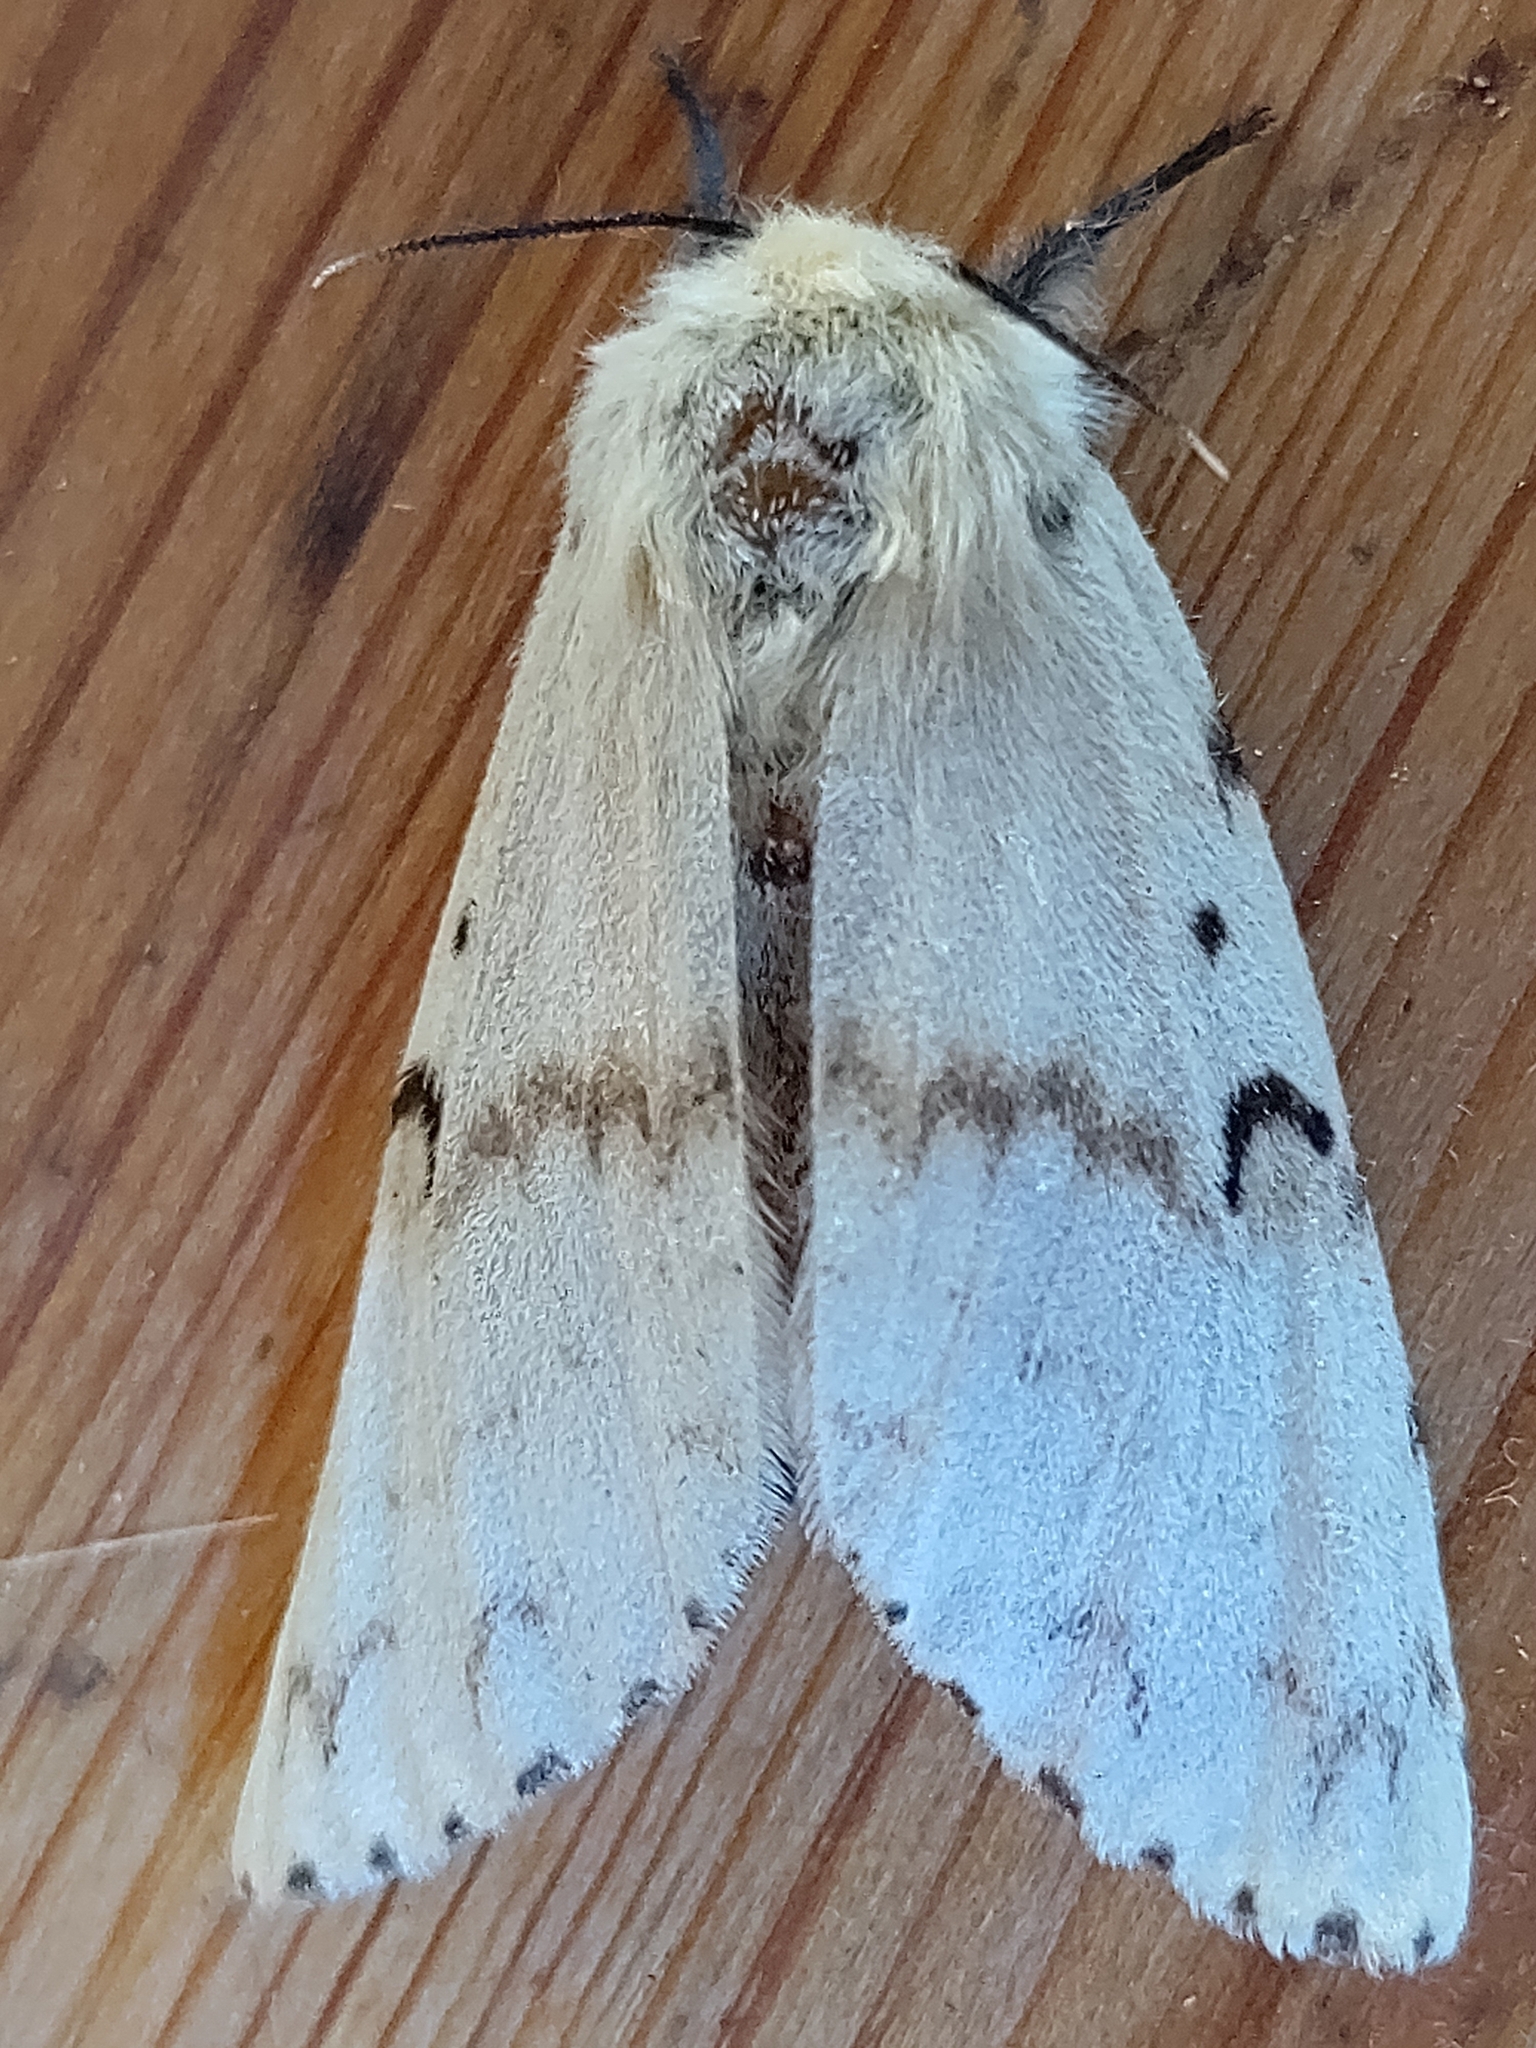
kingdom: Animalia
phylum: Arthropoda
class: Insecta
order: Lepidoptera
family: Erebidae
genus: Lymantria
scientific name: Lymantria dispar
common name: Gypsy moth
